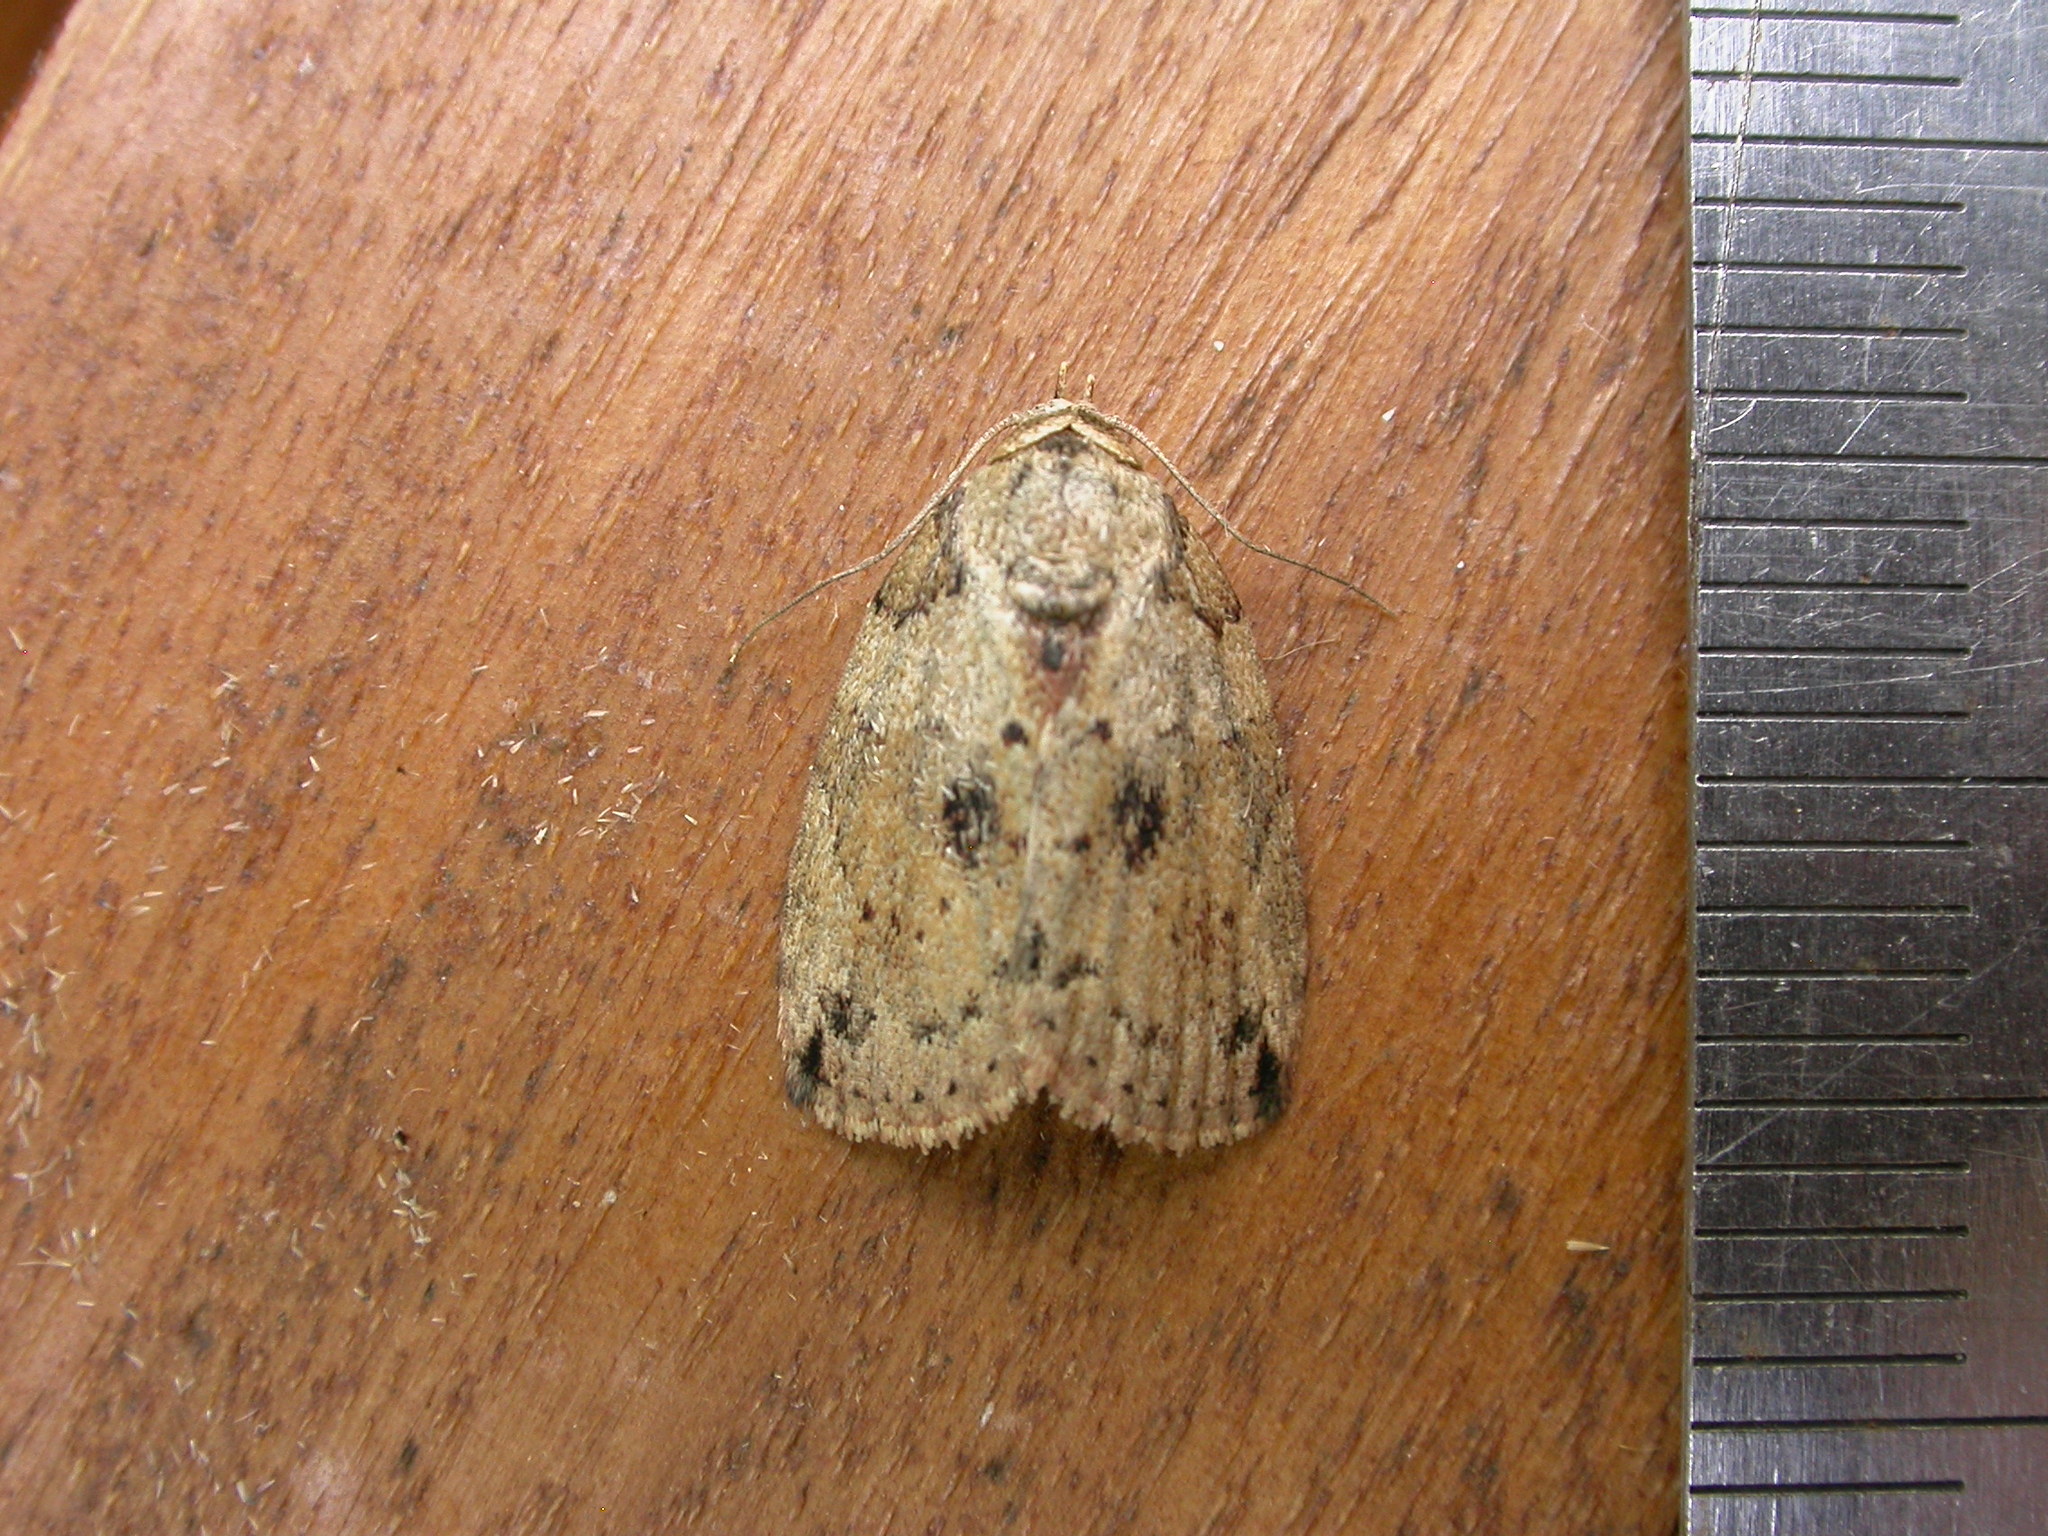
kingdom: Animalia
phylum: Arthropoda
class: Insecta
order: Lepidoptera
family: Nolidae
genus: Etanna
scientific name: Etanna breviuscula
